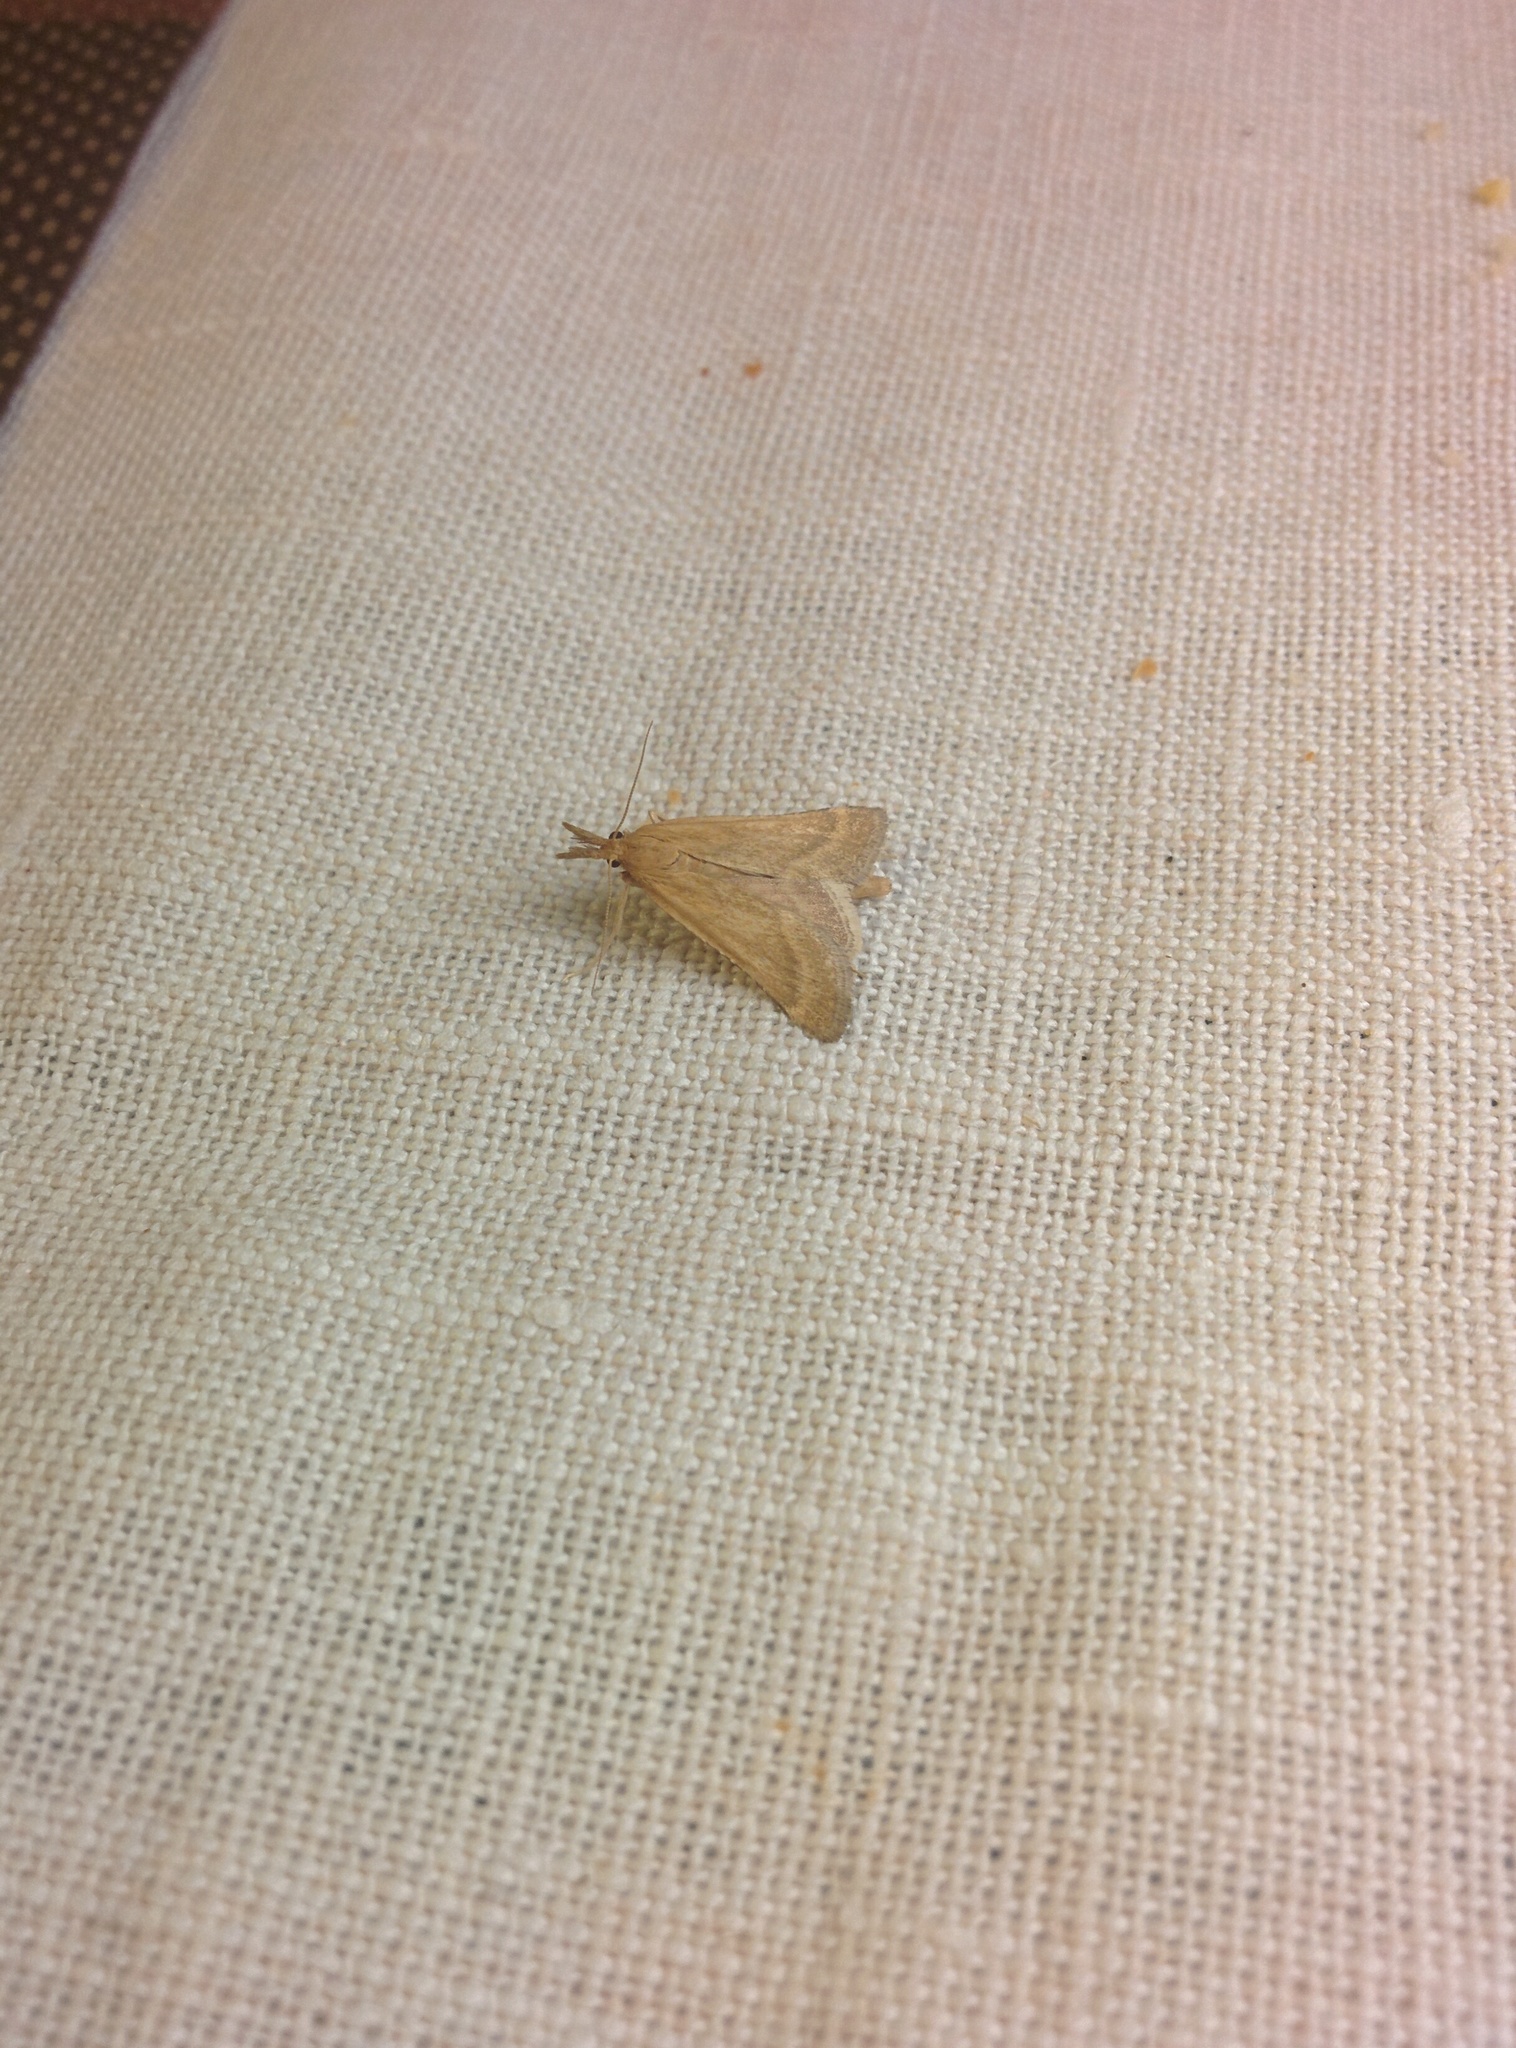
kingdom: Animalia
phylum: Arthropoda
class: Insecta
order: Lepidoptera
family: Pyralidae
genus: Synaphe
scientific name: Synaphe punctalis
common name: Long-legged tabby
